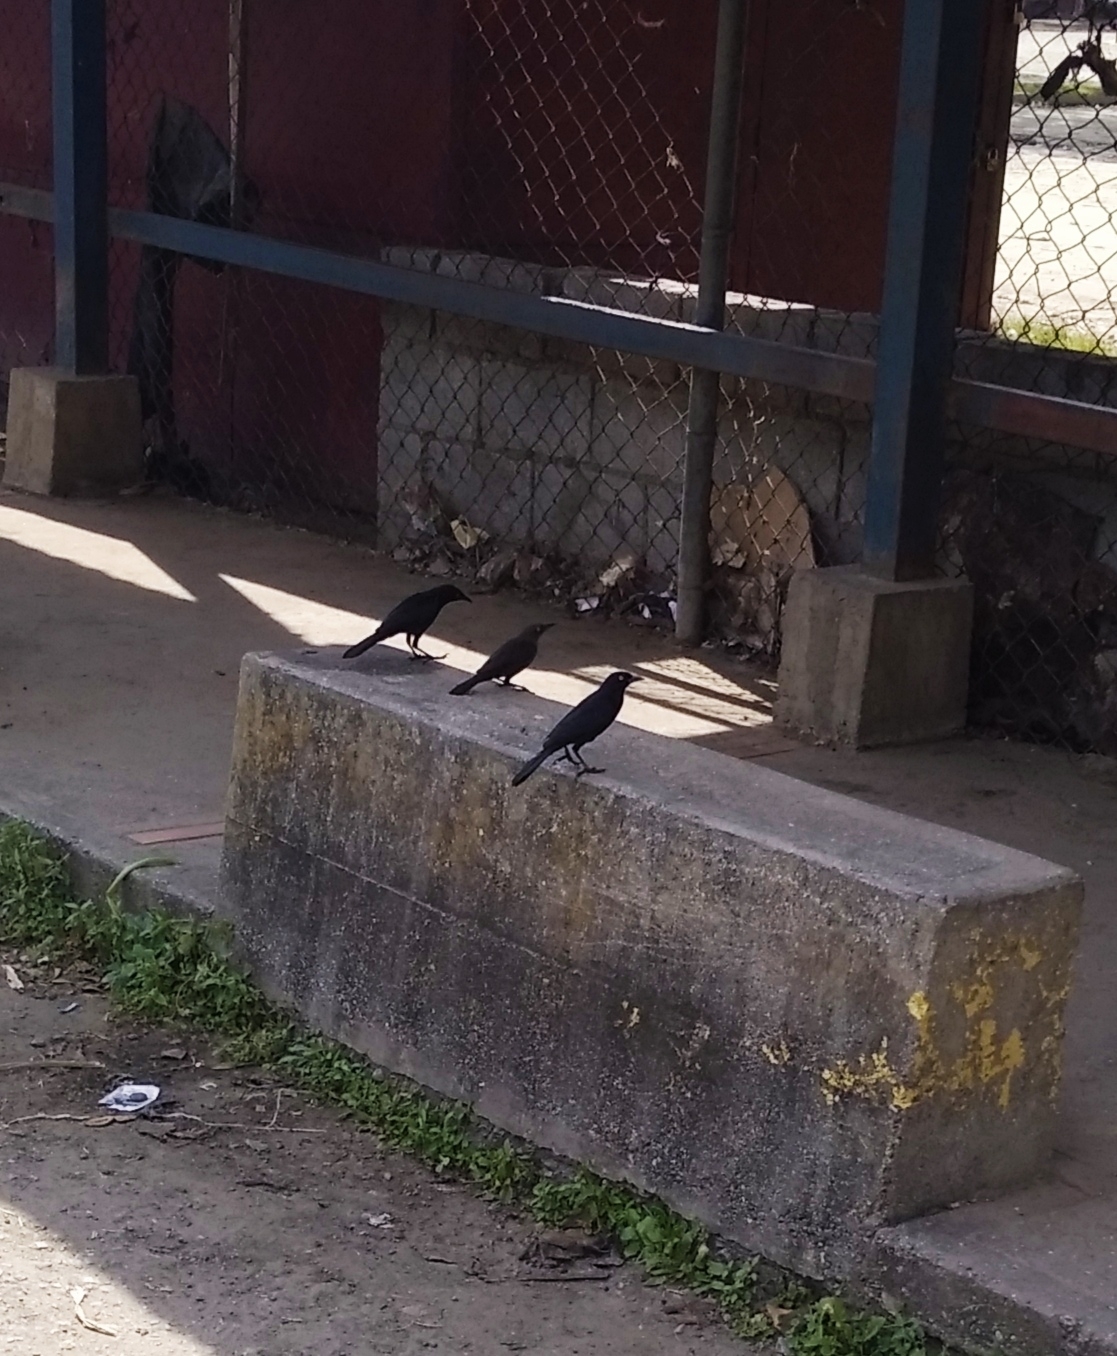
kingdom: Animalia
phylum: Chordata
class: Aves
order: Passeriformes
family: Icteridae
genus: Quiscalus
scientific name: Quiscalus lugubris
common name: Carib grackle
